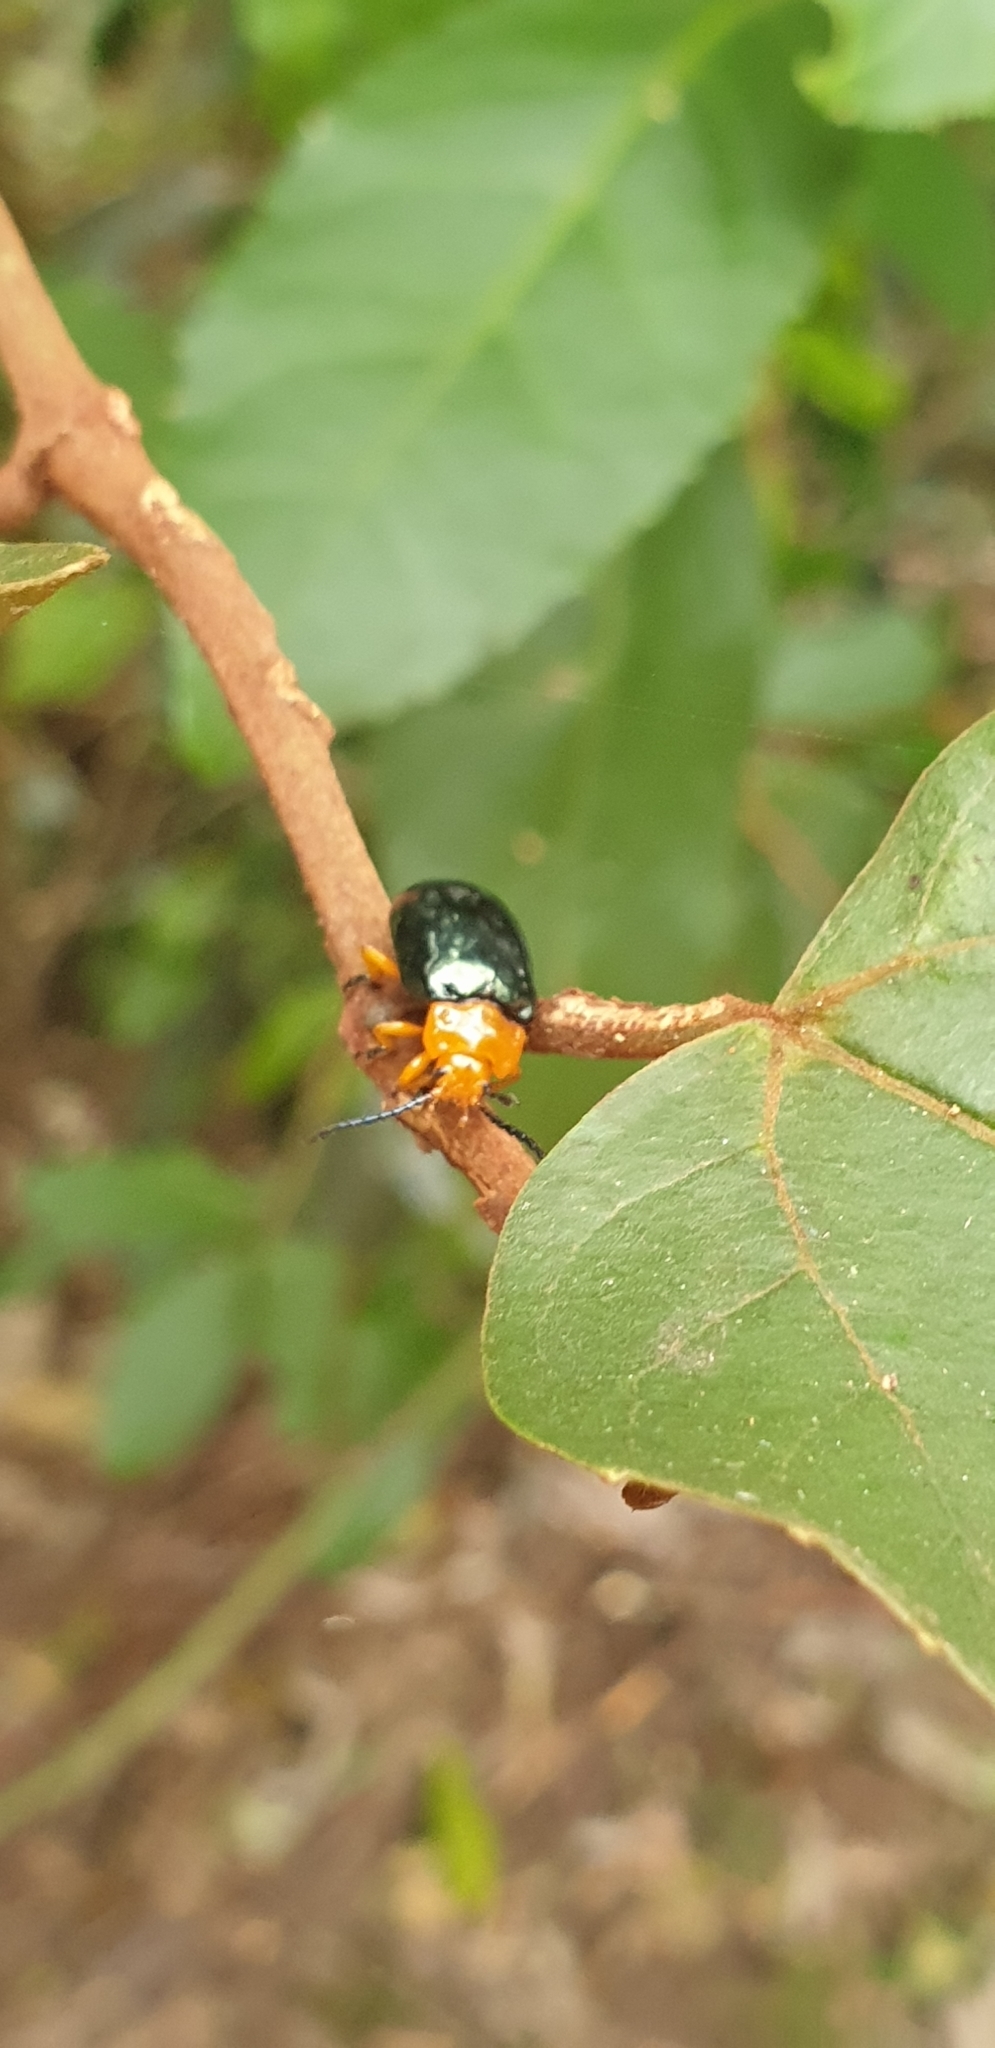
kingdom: Animalia
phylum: Arthropoda
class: Insecta
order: Coleoptera
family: Chrysomelidae
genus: Lamprolina
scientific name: Lamprolina
